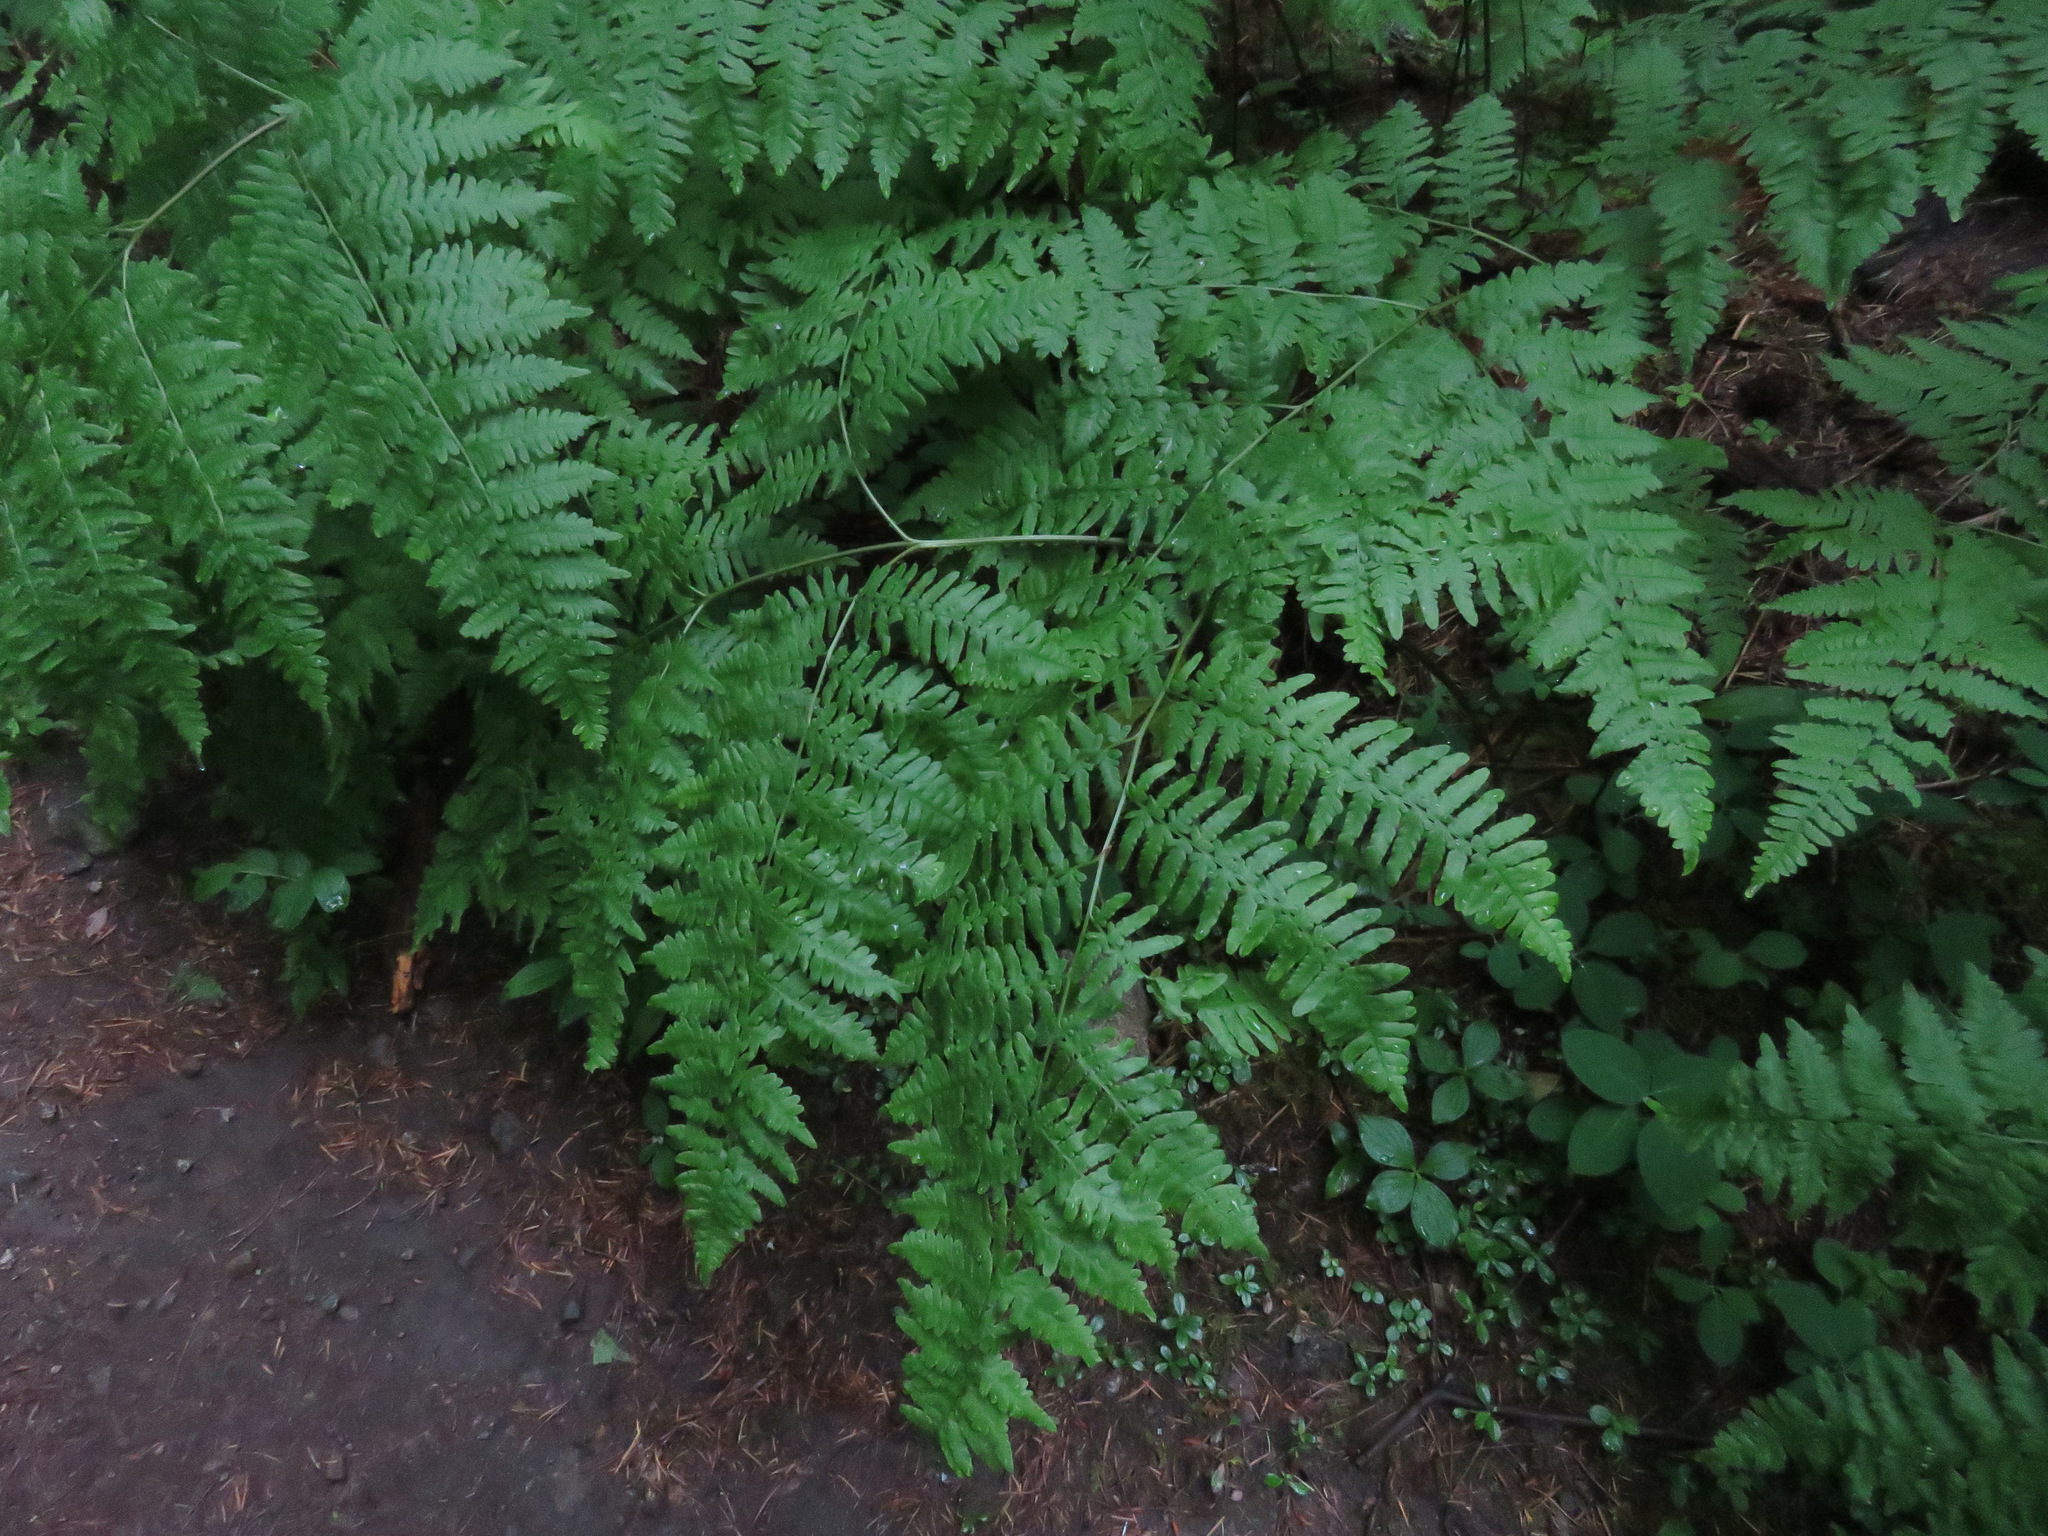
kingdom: Plantae
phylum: Tracheophyta
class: Polypodiopsida
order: Polypodiales
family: Dennstaedtiaceae
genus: Pteridium
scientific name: Pteridium aquilinum
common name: Bracken
